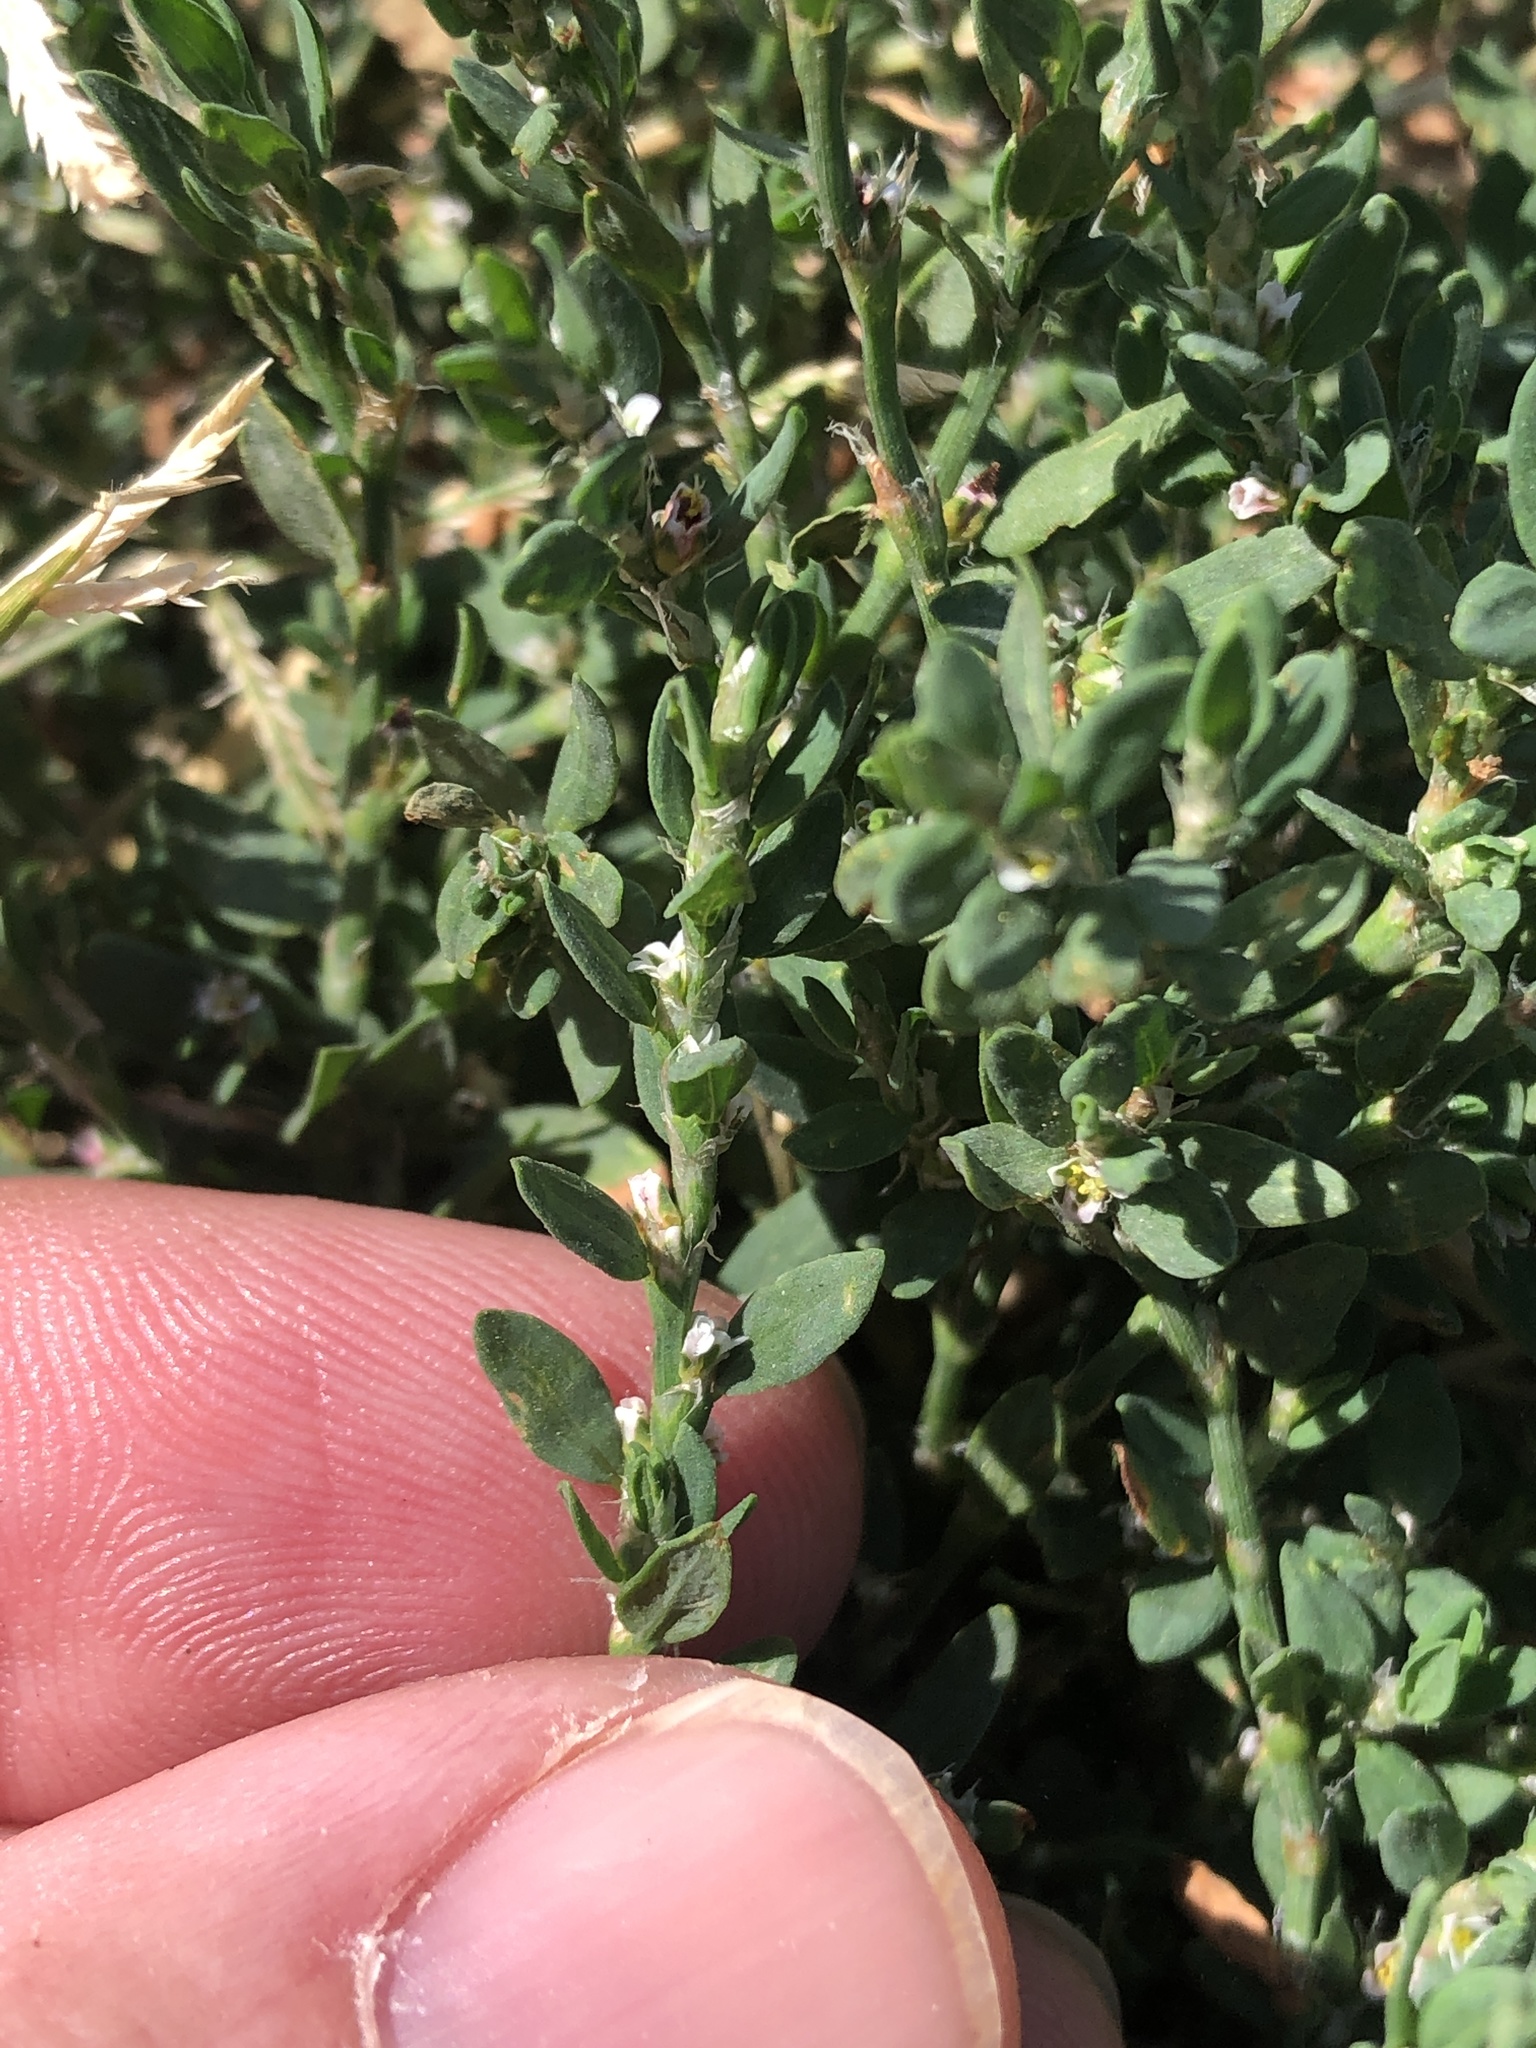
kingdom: Plantae
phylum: Tracheophyta
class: Magnoliopsida
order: Caryophyllales
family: Polygonaceae
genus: Polygonum
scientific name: Polygonum aviculare
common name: Prostrate knotweed
